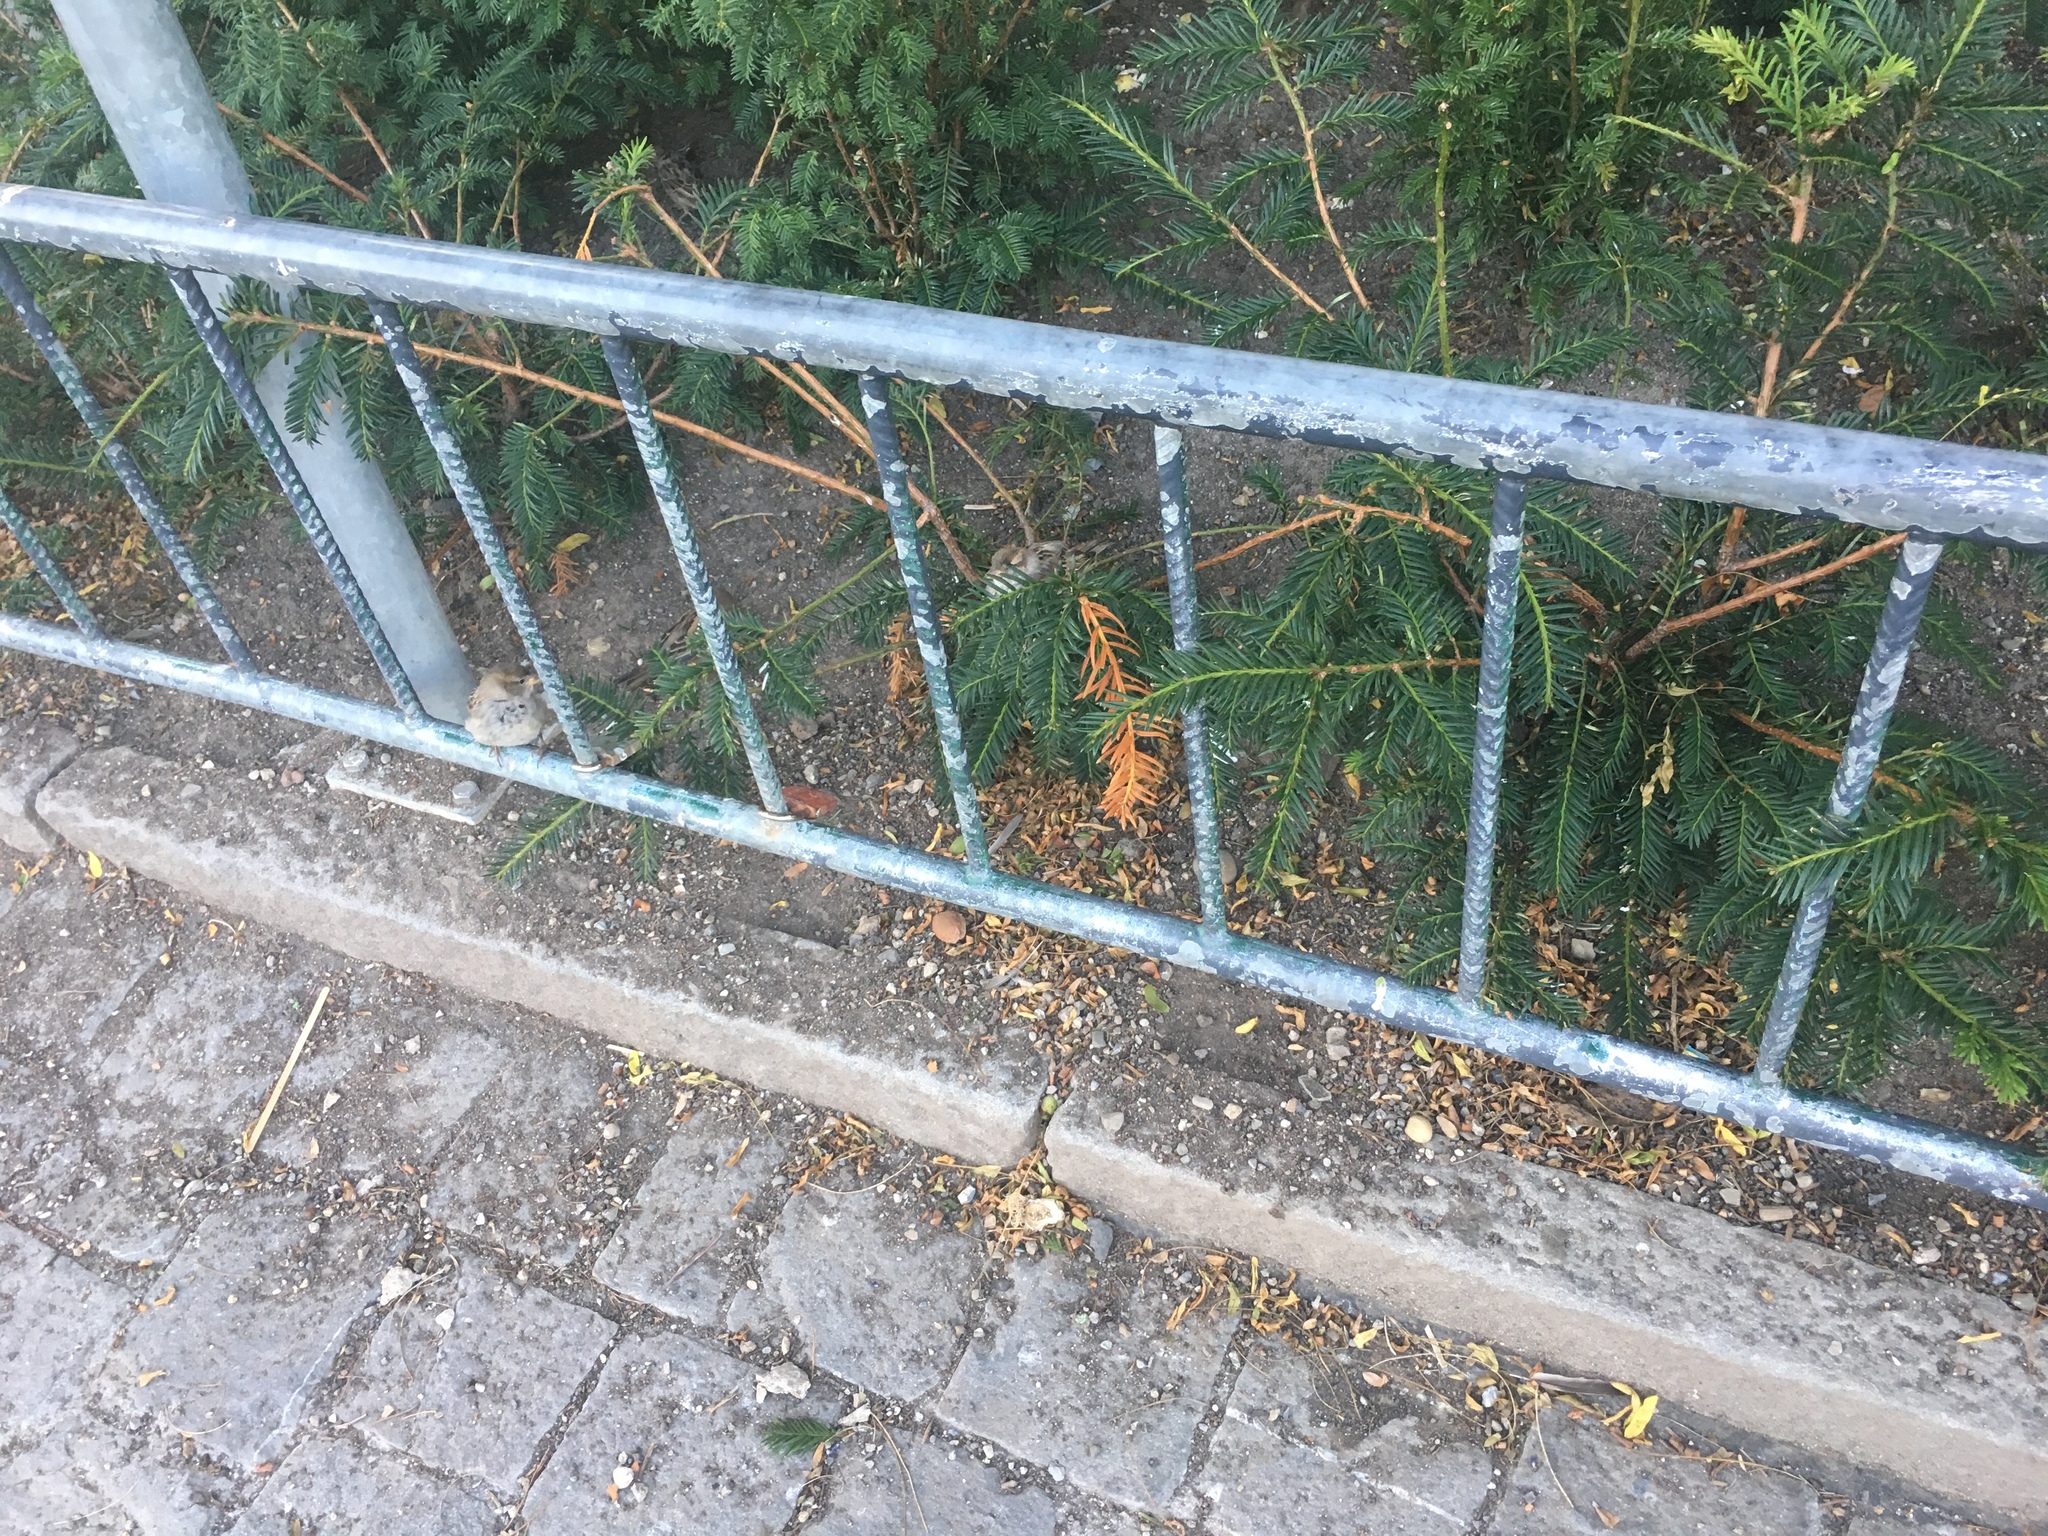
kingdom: Animalia
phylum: Chordata
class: Aves
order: Passeriformes
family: Passeridae
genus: Passer
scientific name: Passer domesticus
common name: House sparrow
